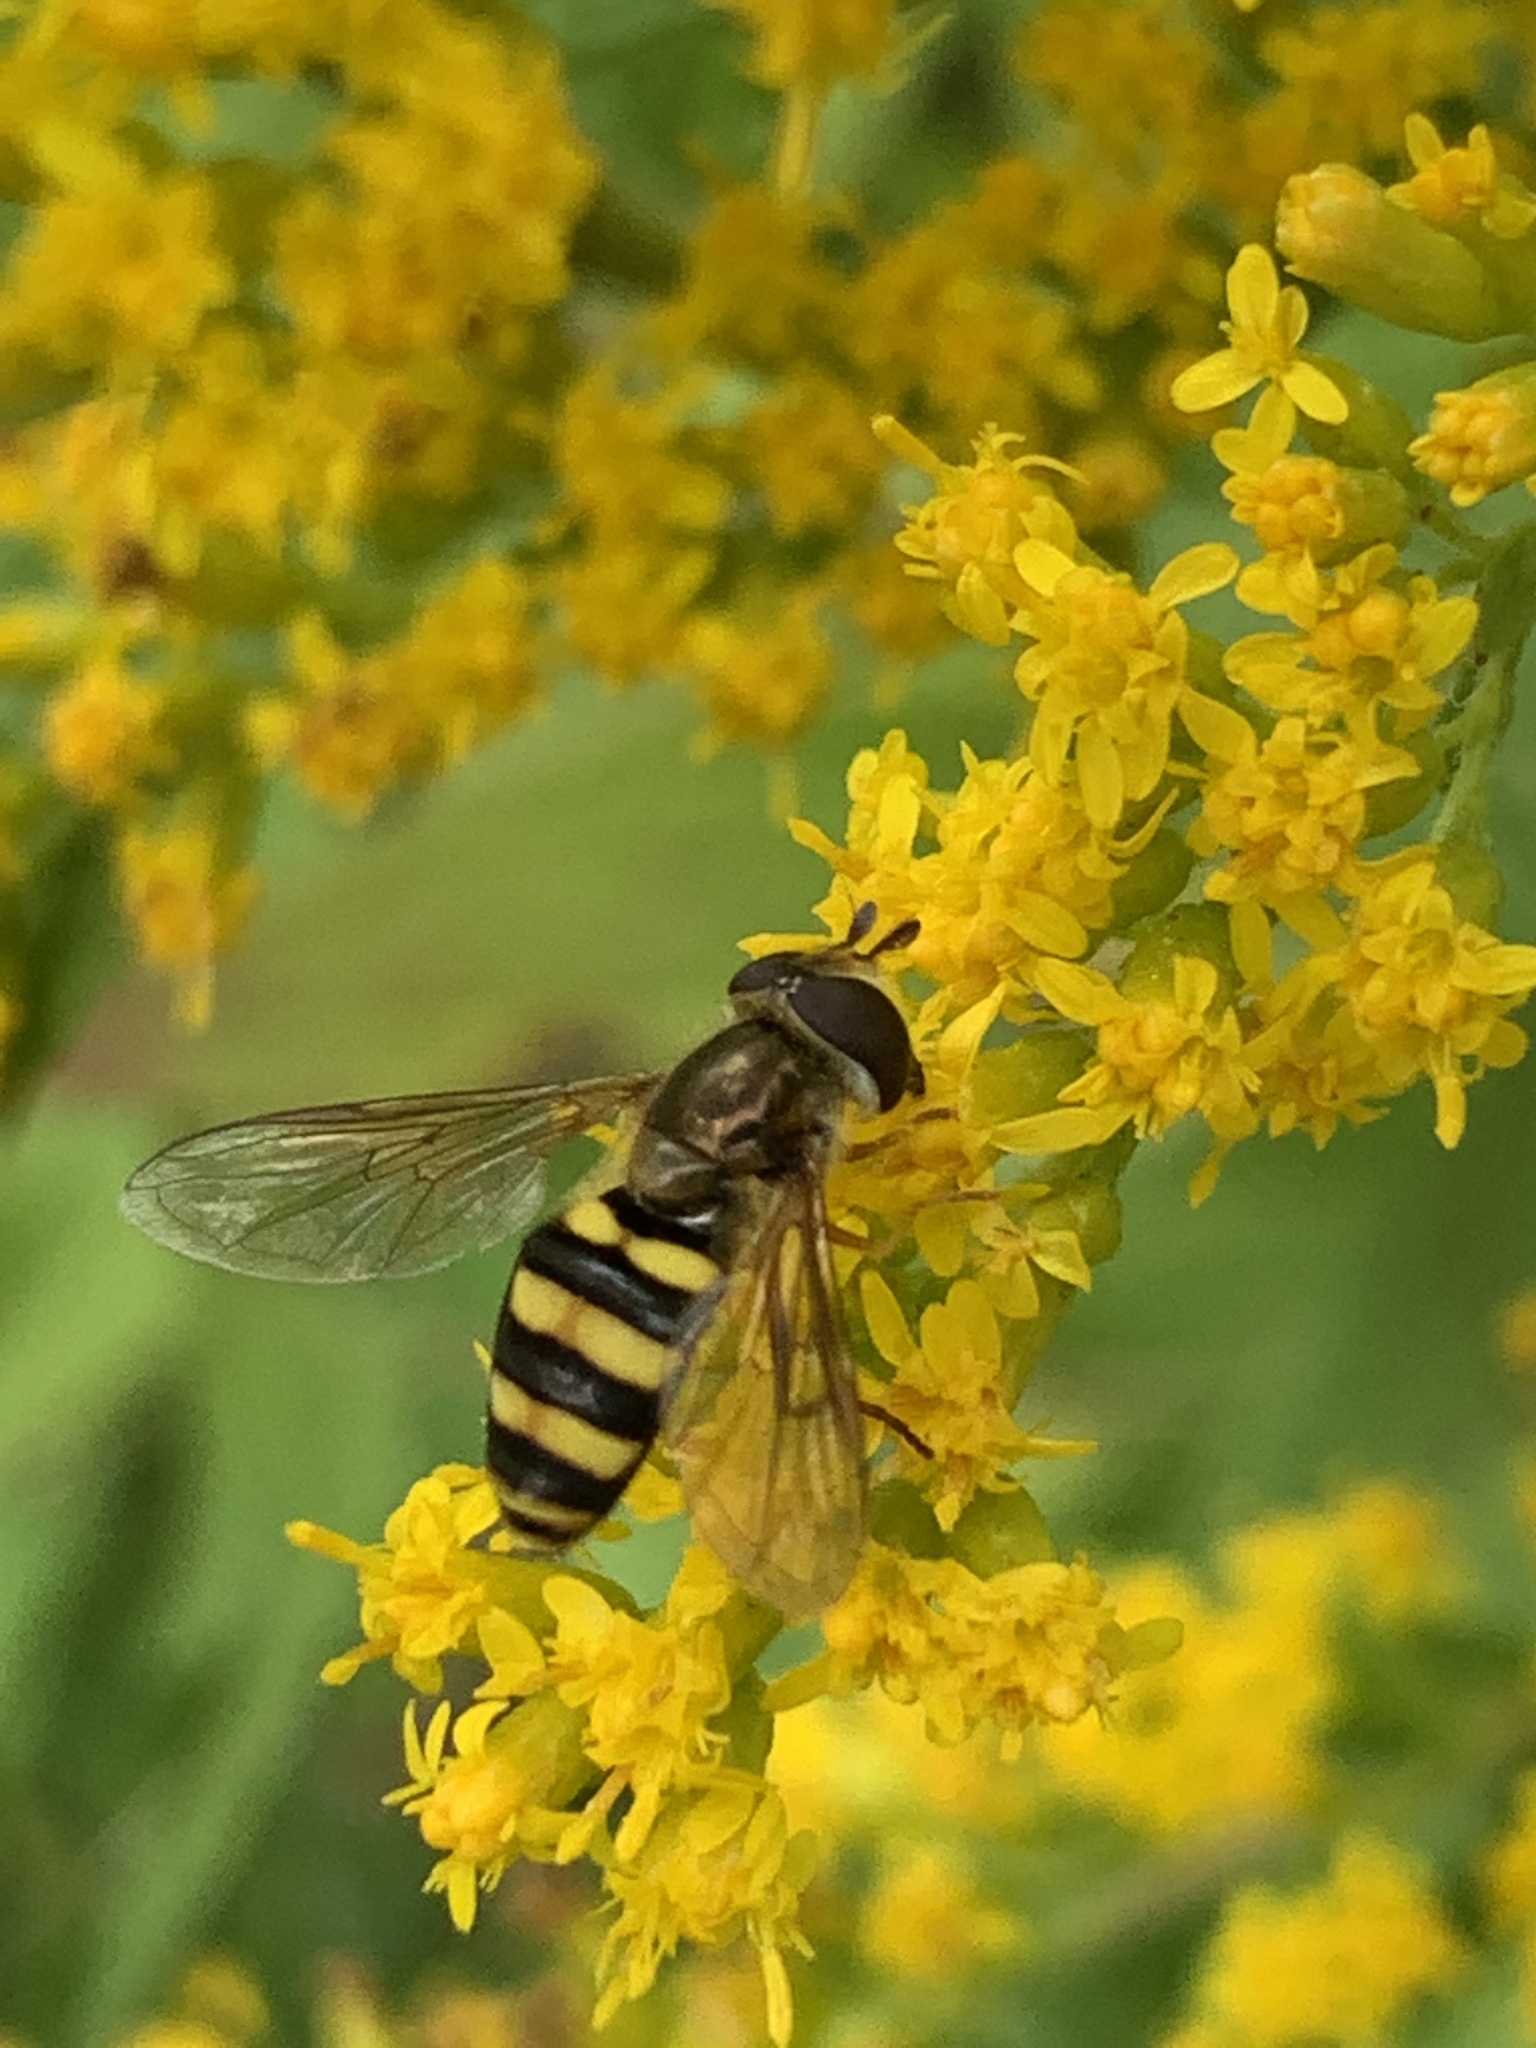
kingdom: Animalia
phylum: Arthropoda
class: Insecta
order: Diptera
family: Syrphidae
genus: Eupeodes
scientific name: Eupeodes
